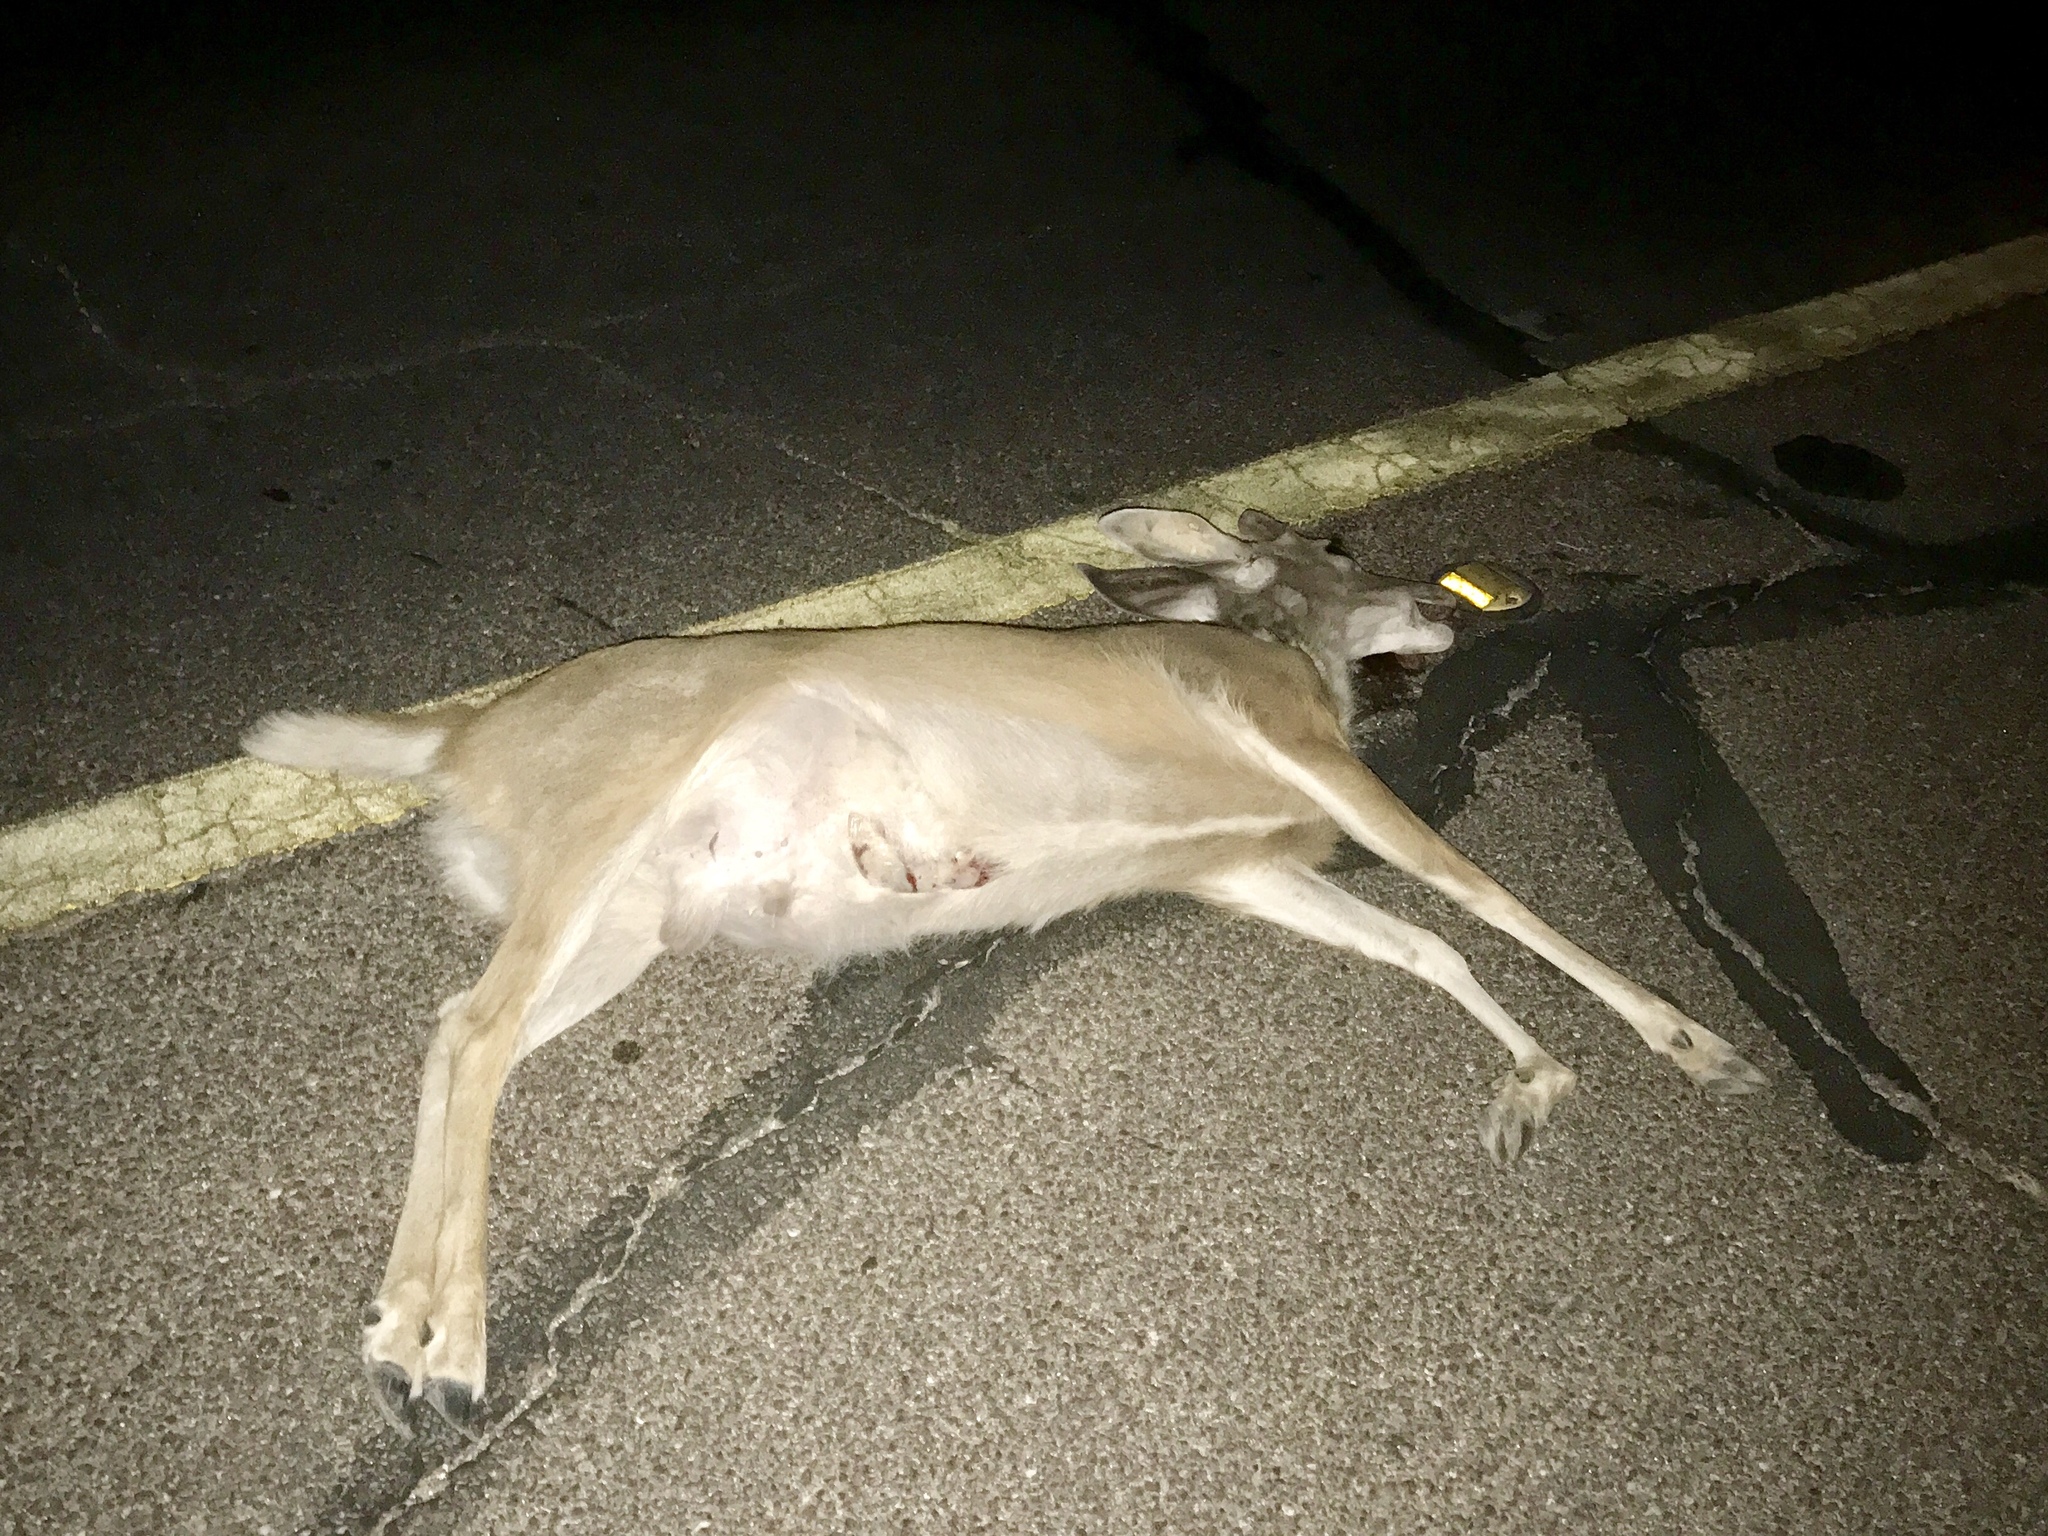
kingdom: Animalia
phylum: Chordata
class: Mammalia
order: Artiodactyla
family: Cervidae
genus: Odocoileus
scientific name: Odocoileus virginianus
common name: White-tailed deer
